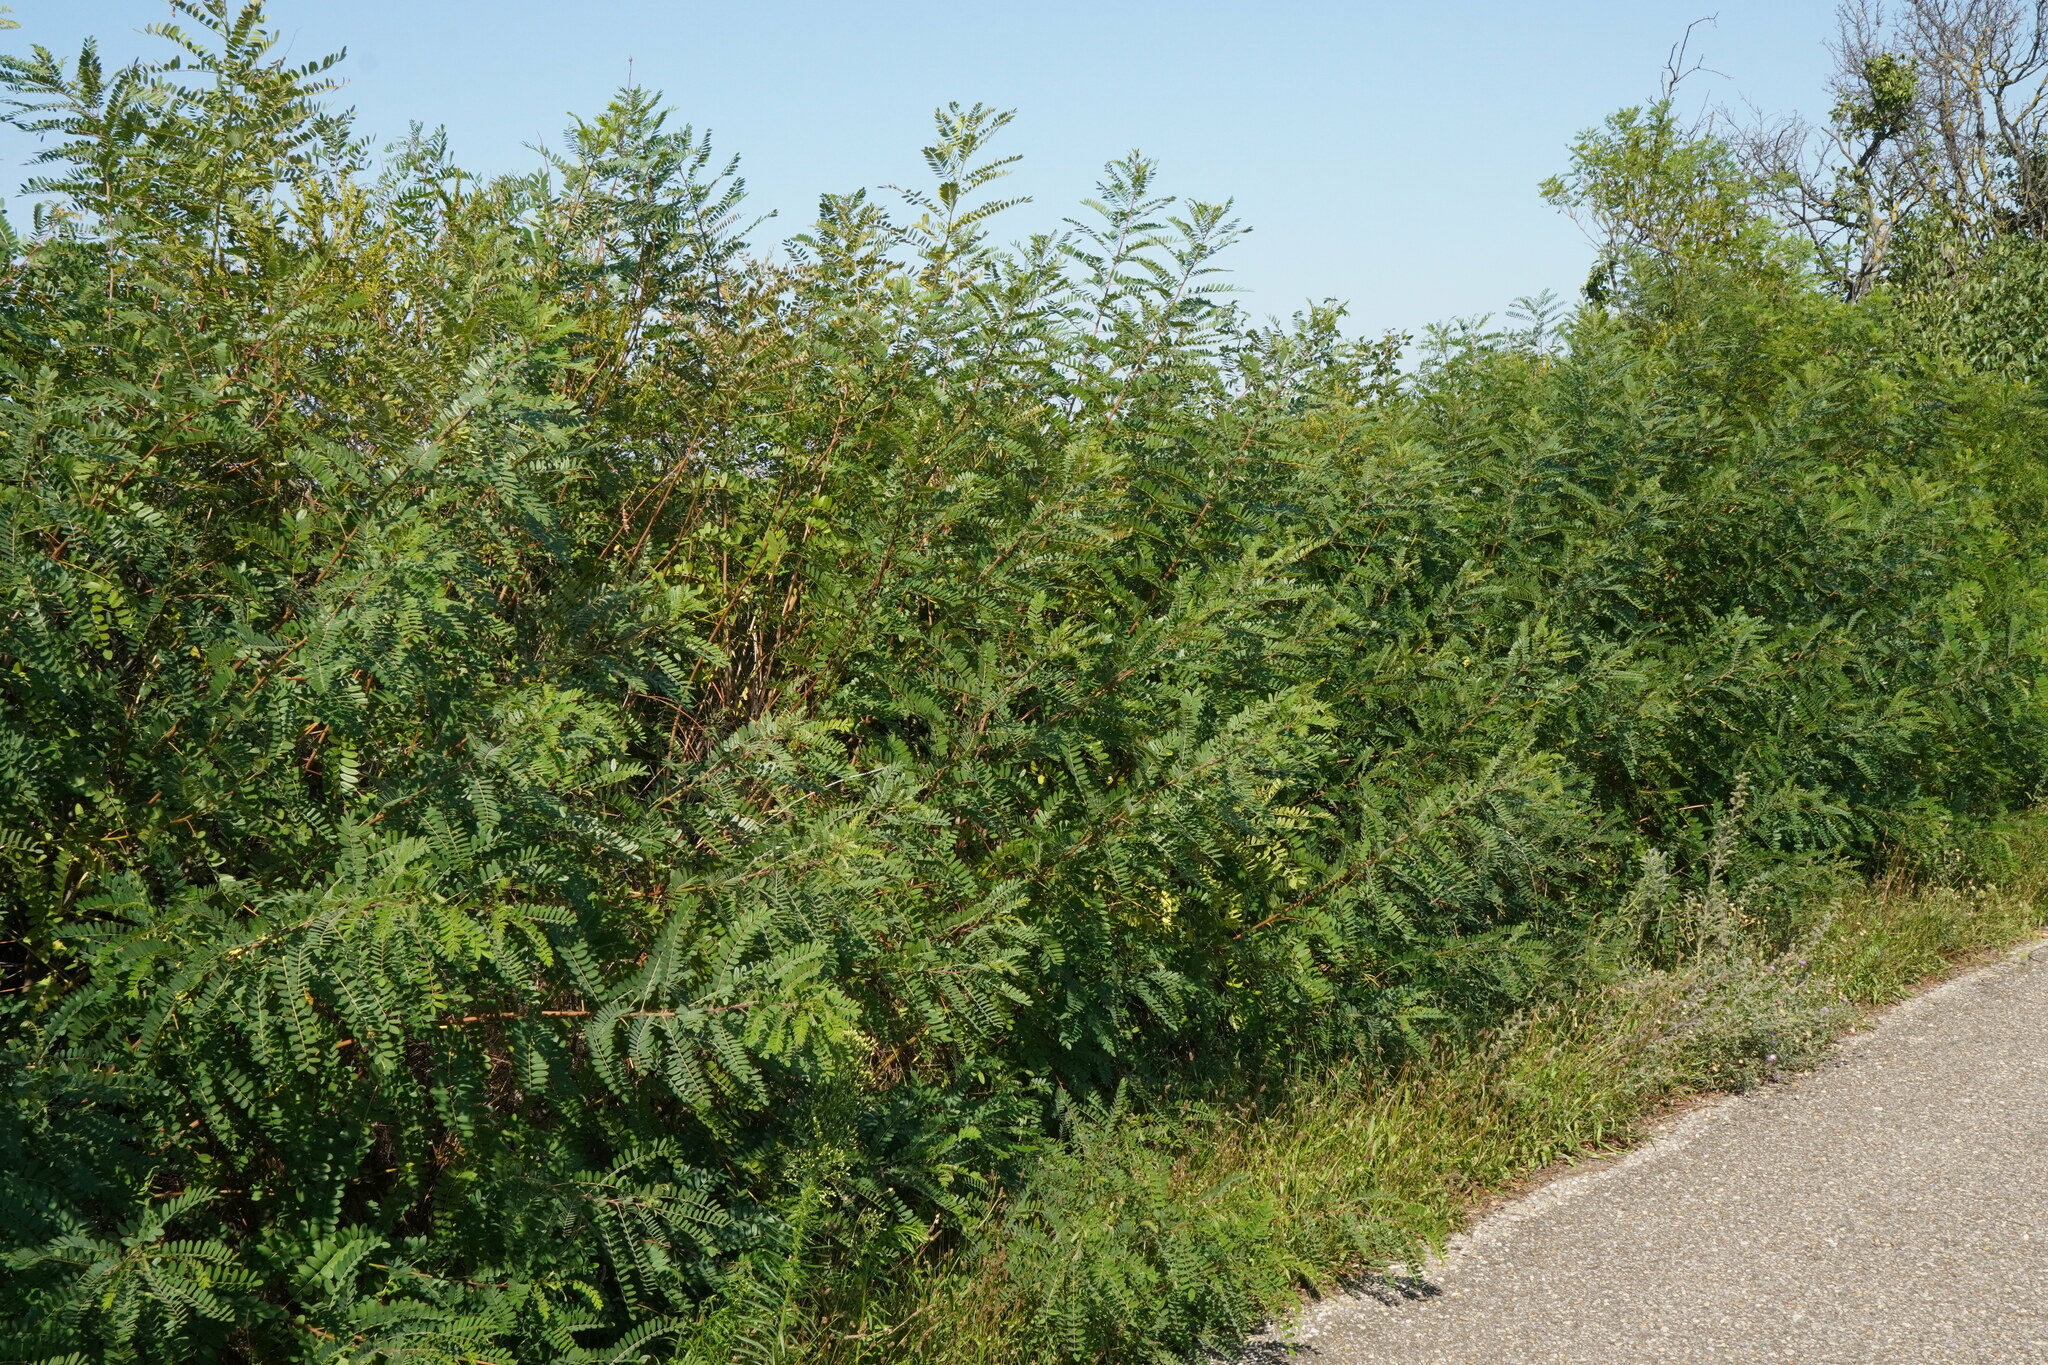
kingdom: Plantae
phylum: Tracheophyta
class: Magnoliopsida
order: Fabales
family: Fabaceae
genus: Amorpha
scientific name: Amorpha fruticosa
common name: False indigo
